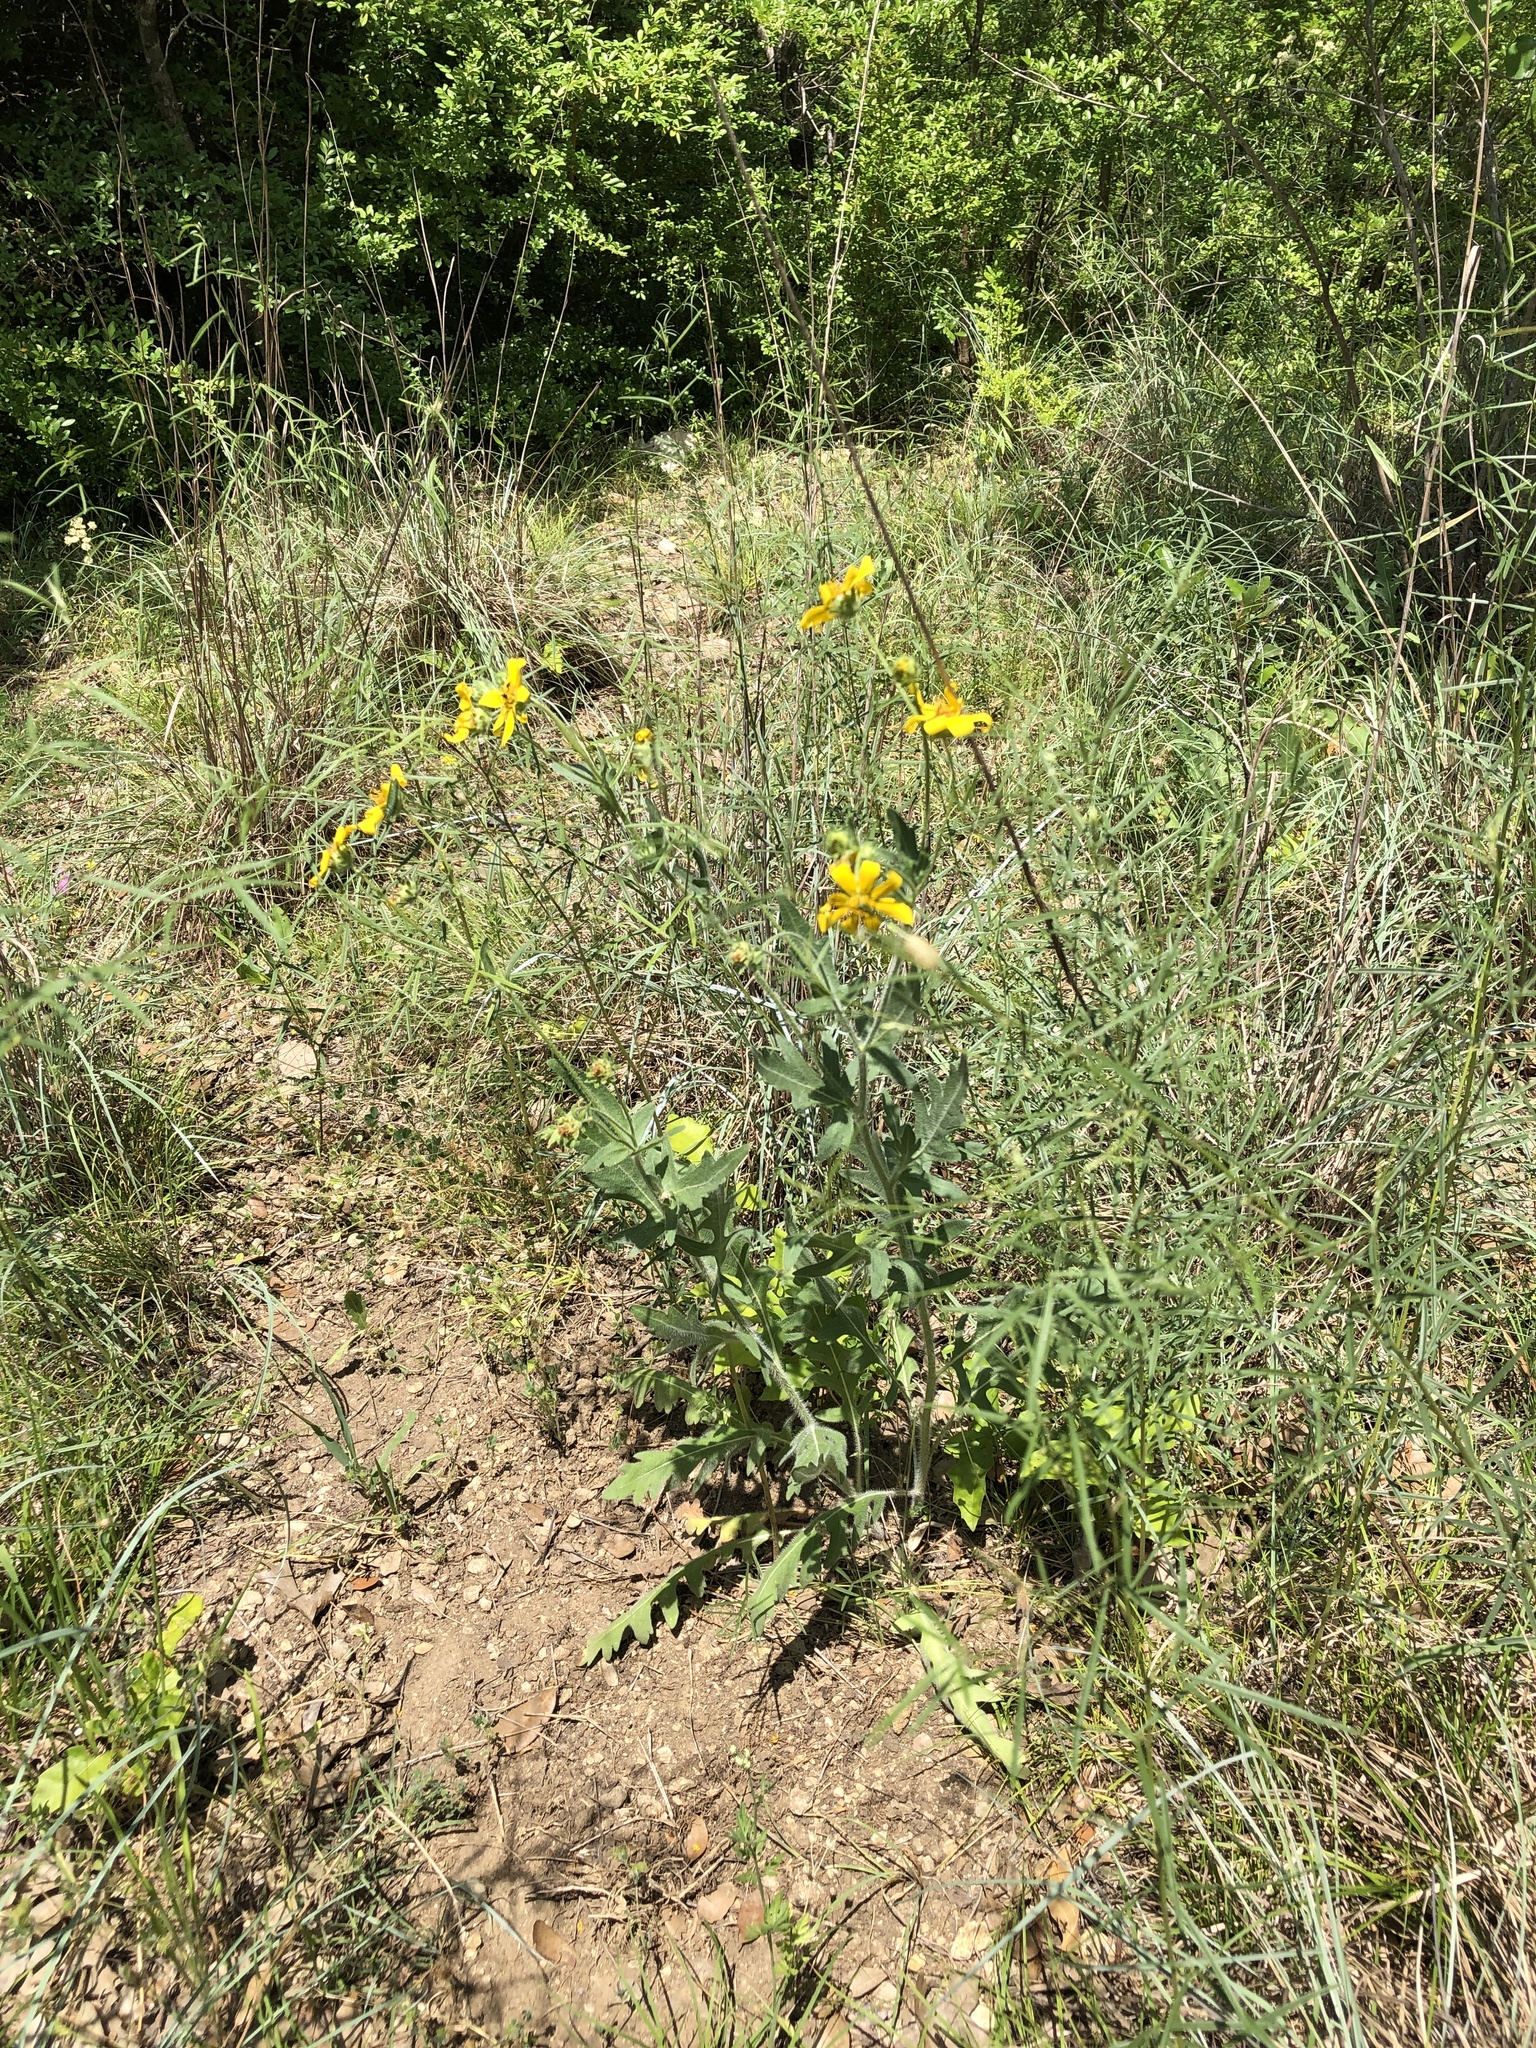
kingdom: Plantae
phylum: Tracheophyta
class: Magnoliopsida
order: Asterales
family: Asteraceae
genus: Engelmannia
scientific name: Engelmannia peristenia
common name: Engelmann's daisy
